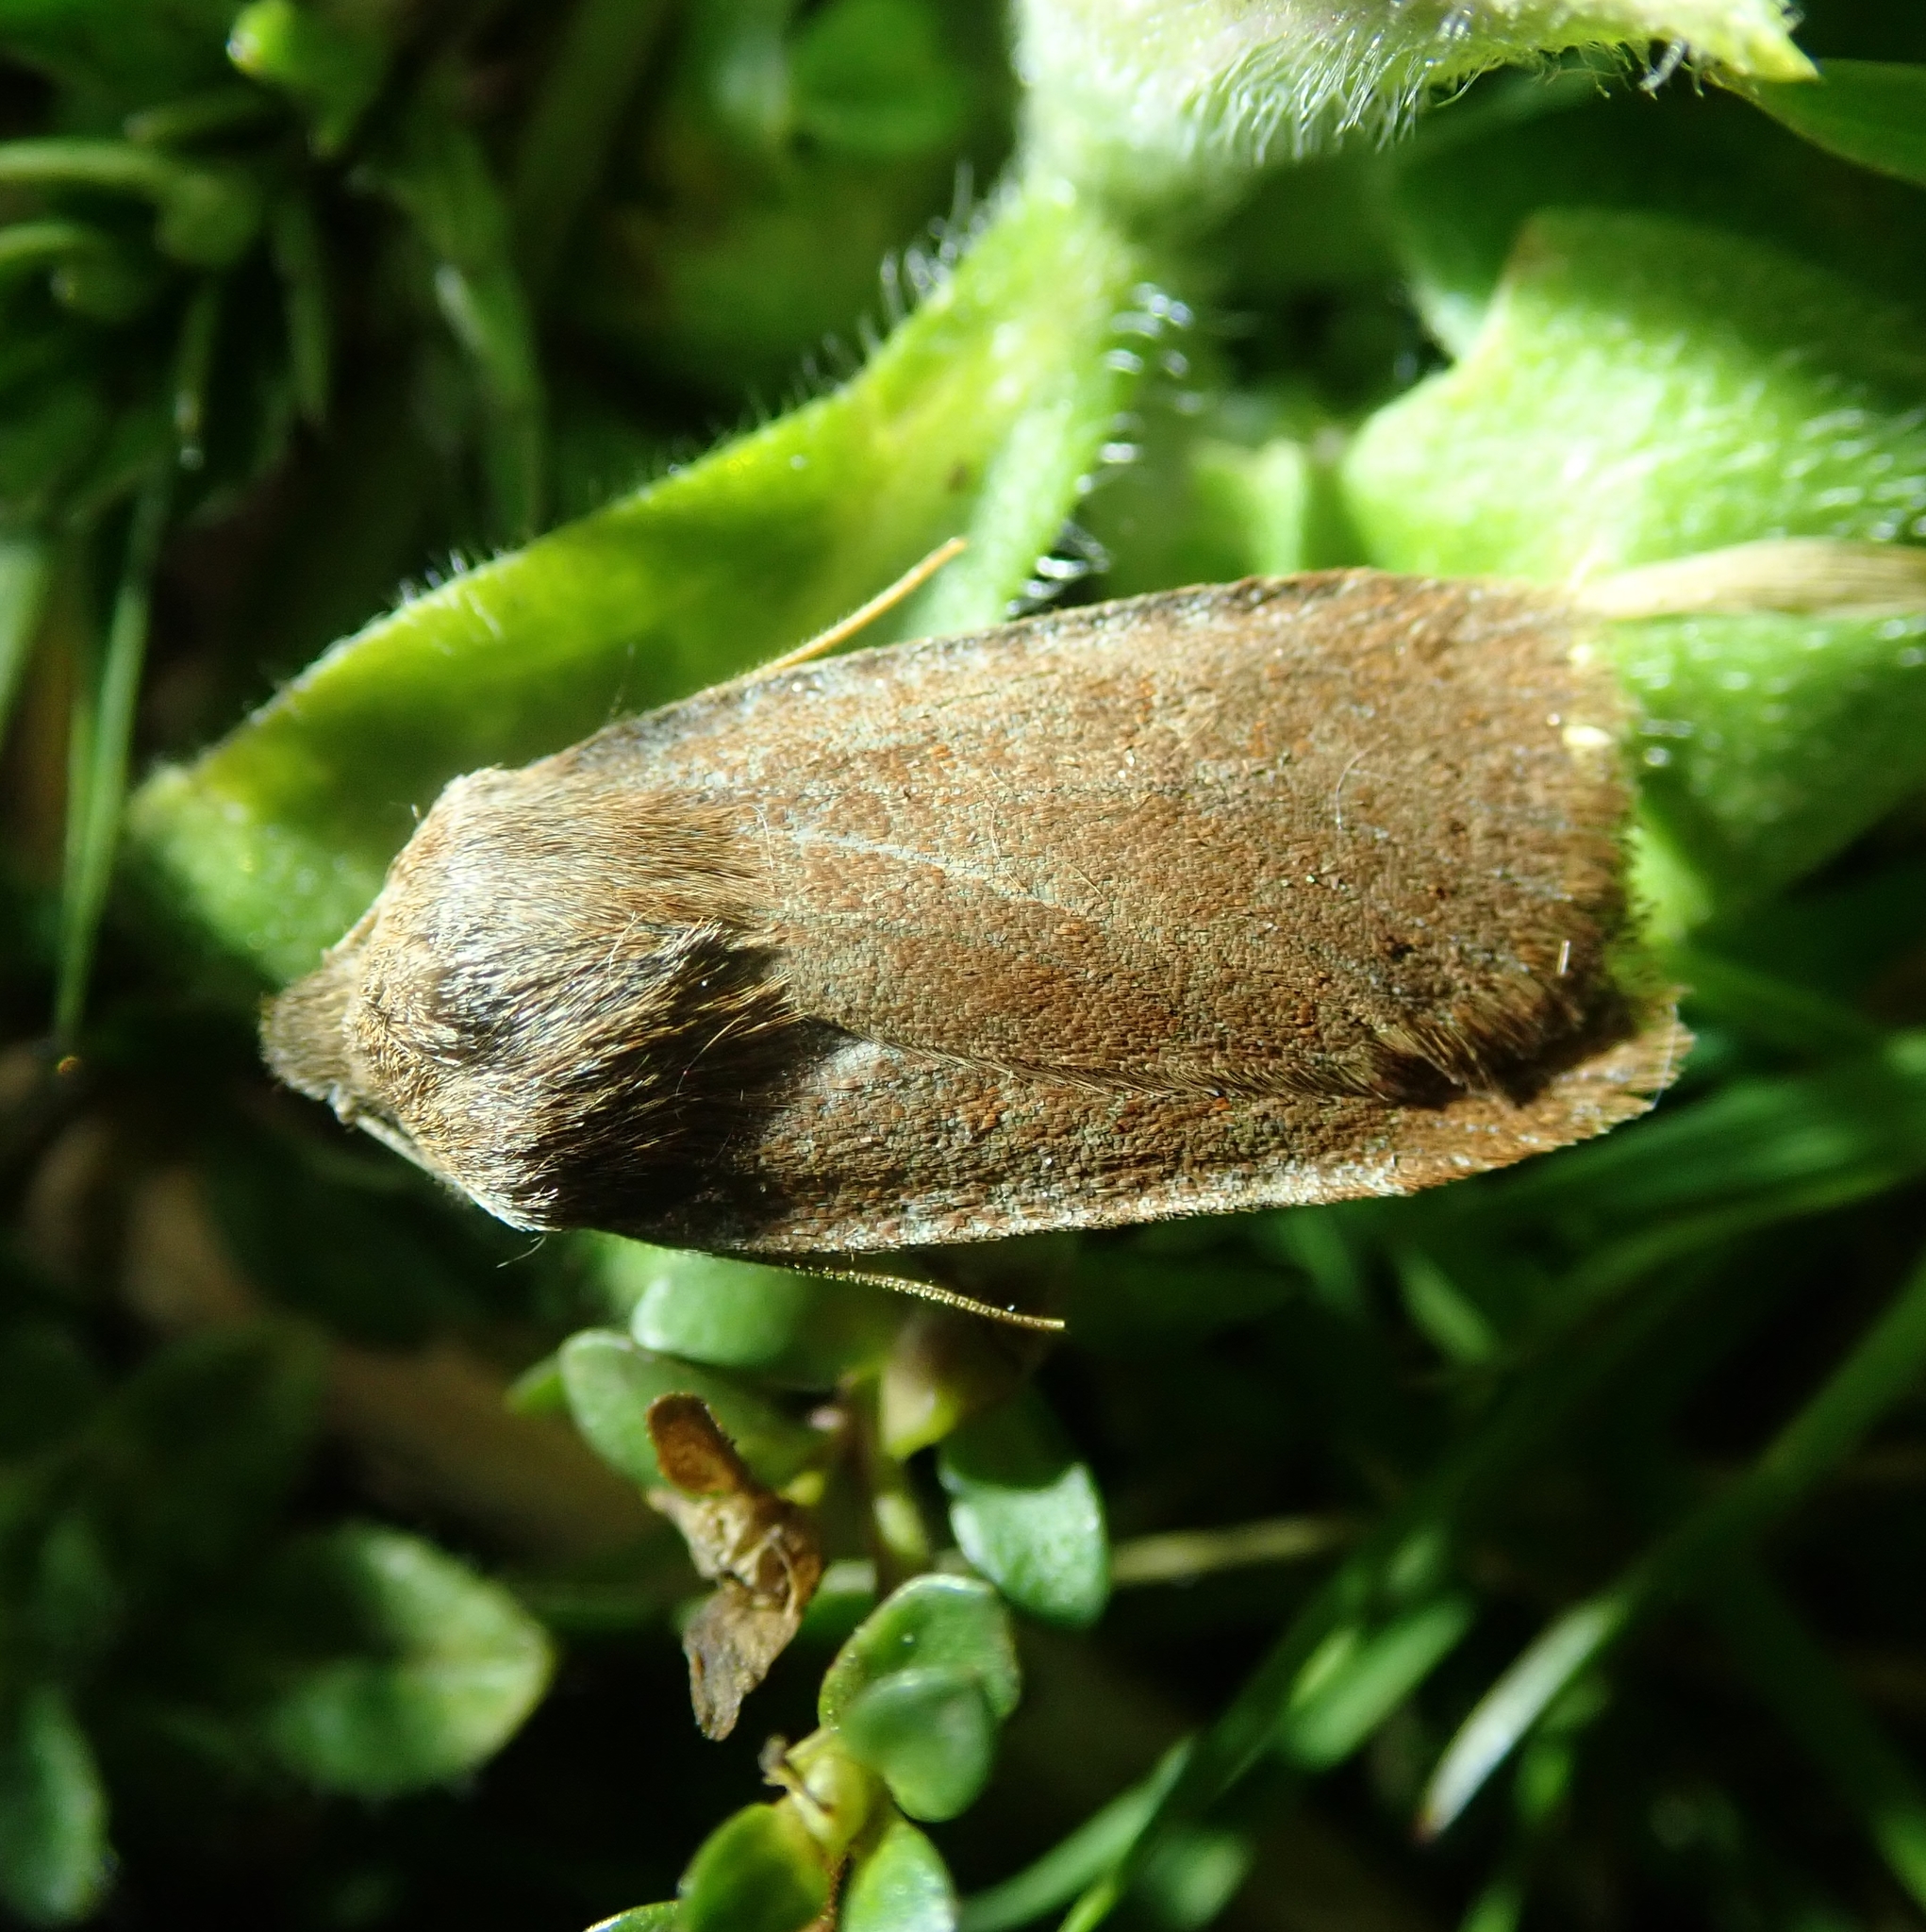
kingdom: Animalia
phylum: Arthropoda
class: Insecta
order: Lepidoptera
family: Noctuidae
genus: Conistra
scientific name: Conistra vaccinii
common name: Chestnut
